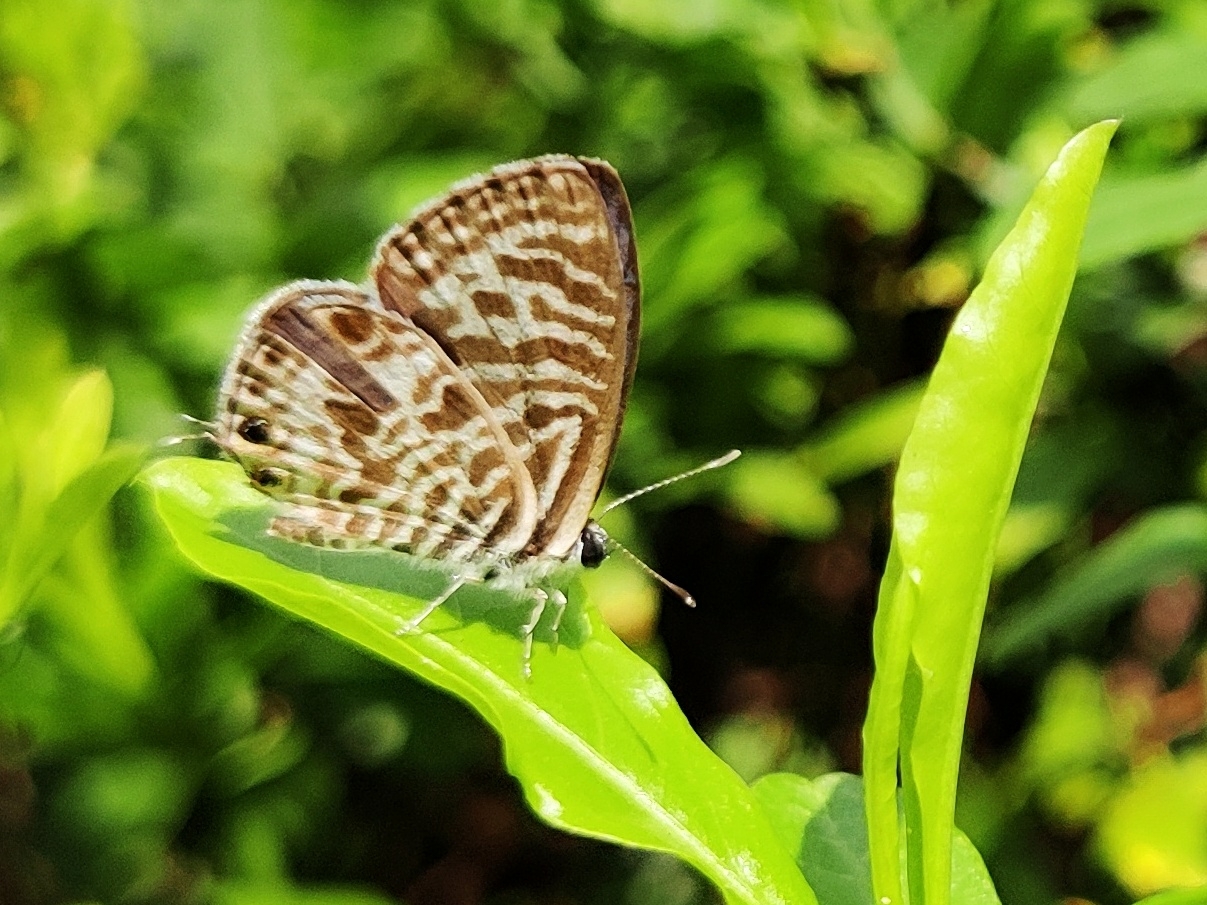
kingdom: Animalia
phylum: Arthropoda
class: Insecta
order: Lepidoptera
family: Lycaenidae
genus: Leptotes
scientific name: Leptotes plinius
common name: Zebra blue
